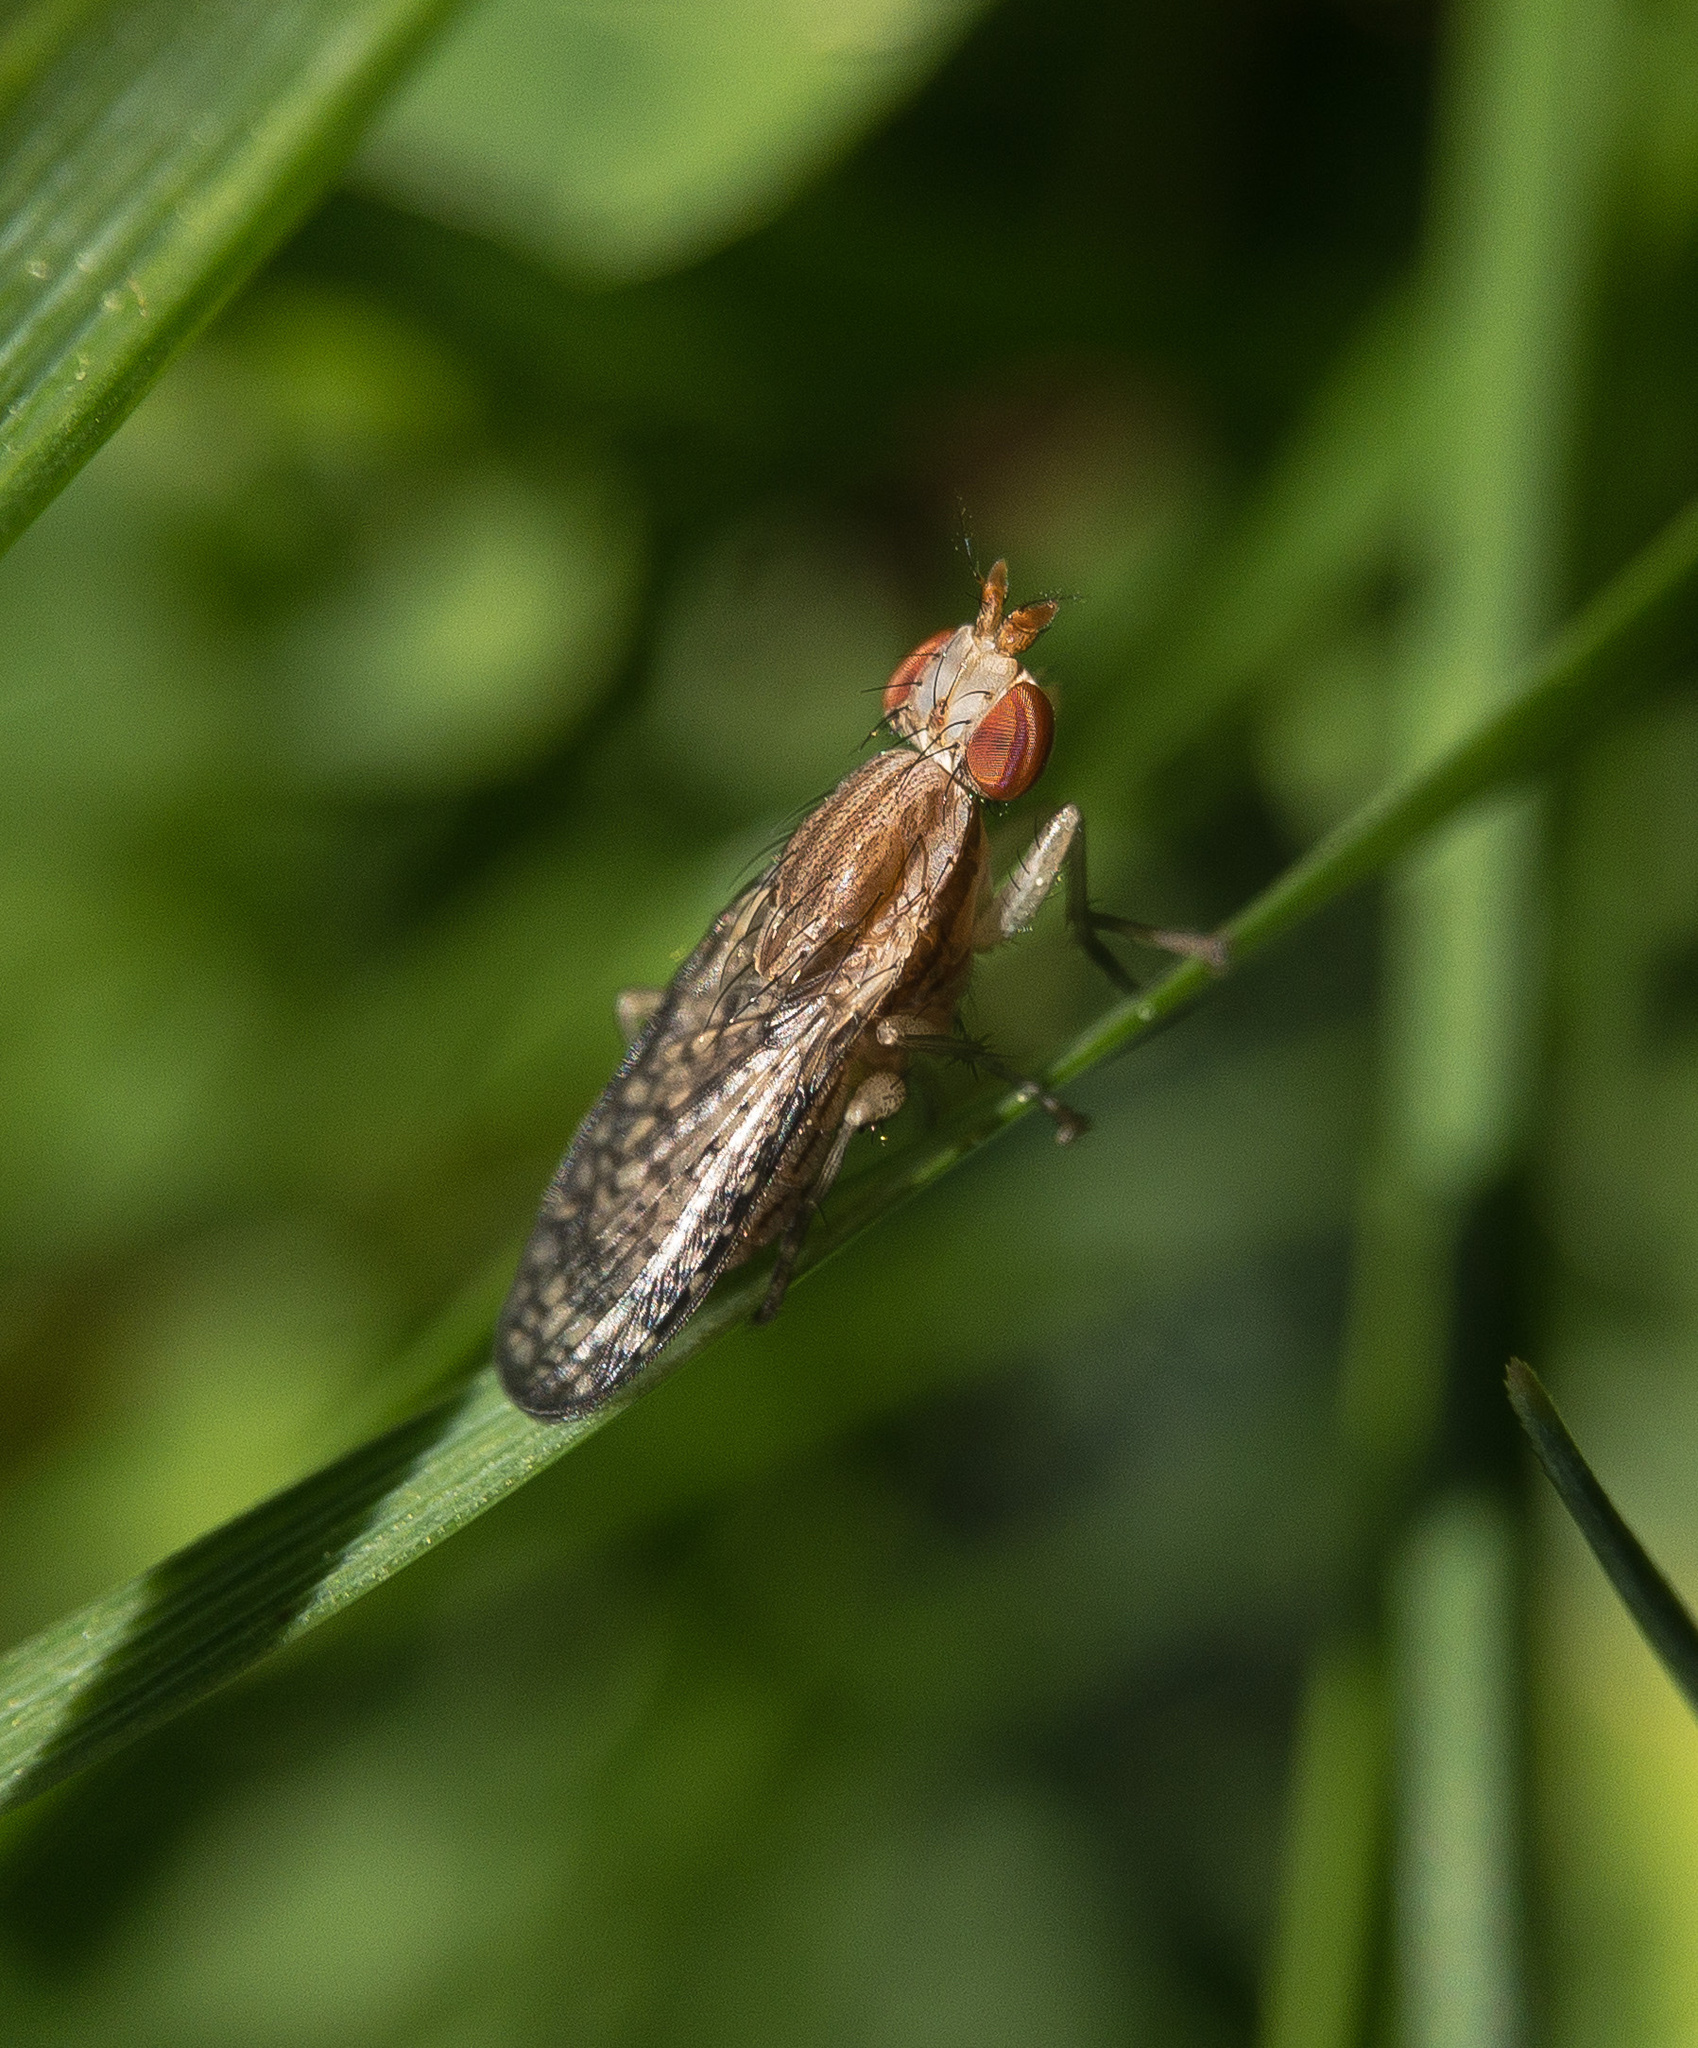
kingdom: Animalia
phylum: Arthropoda
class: Insecta
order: Diptera
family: Sciomyzidae
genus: Trypetoptera
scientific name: Trypetoptera canadensis
